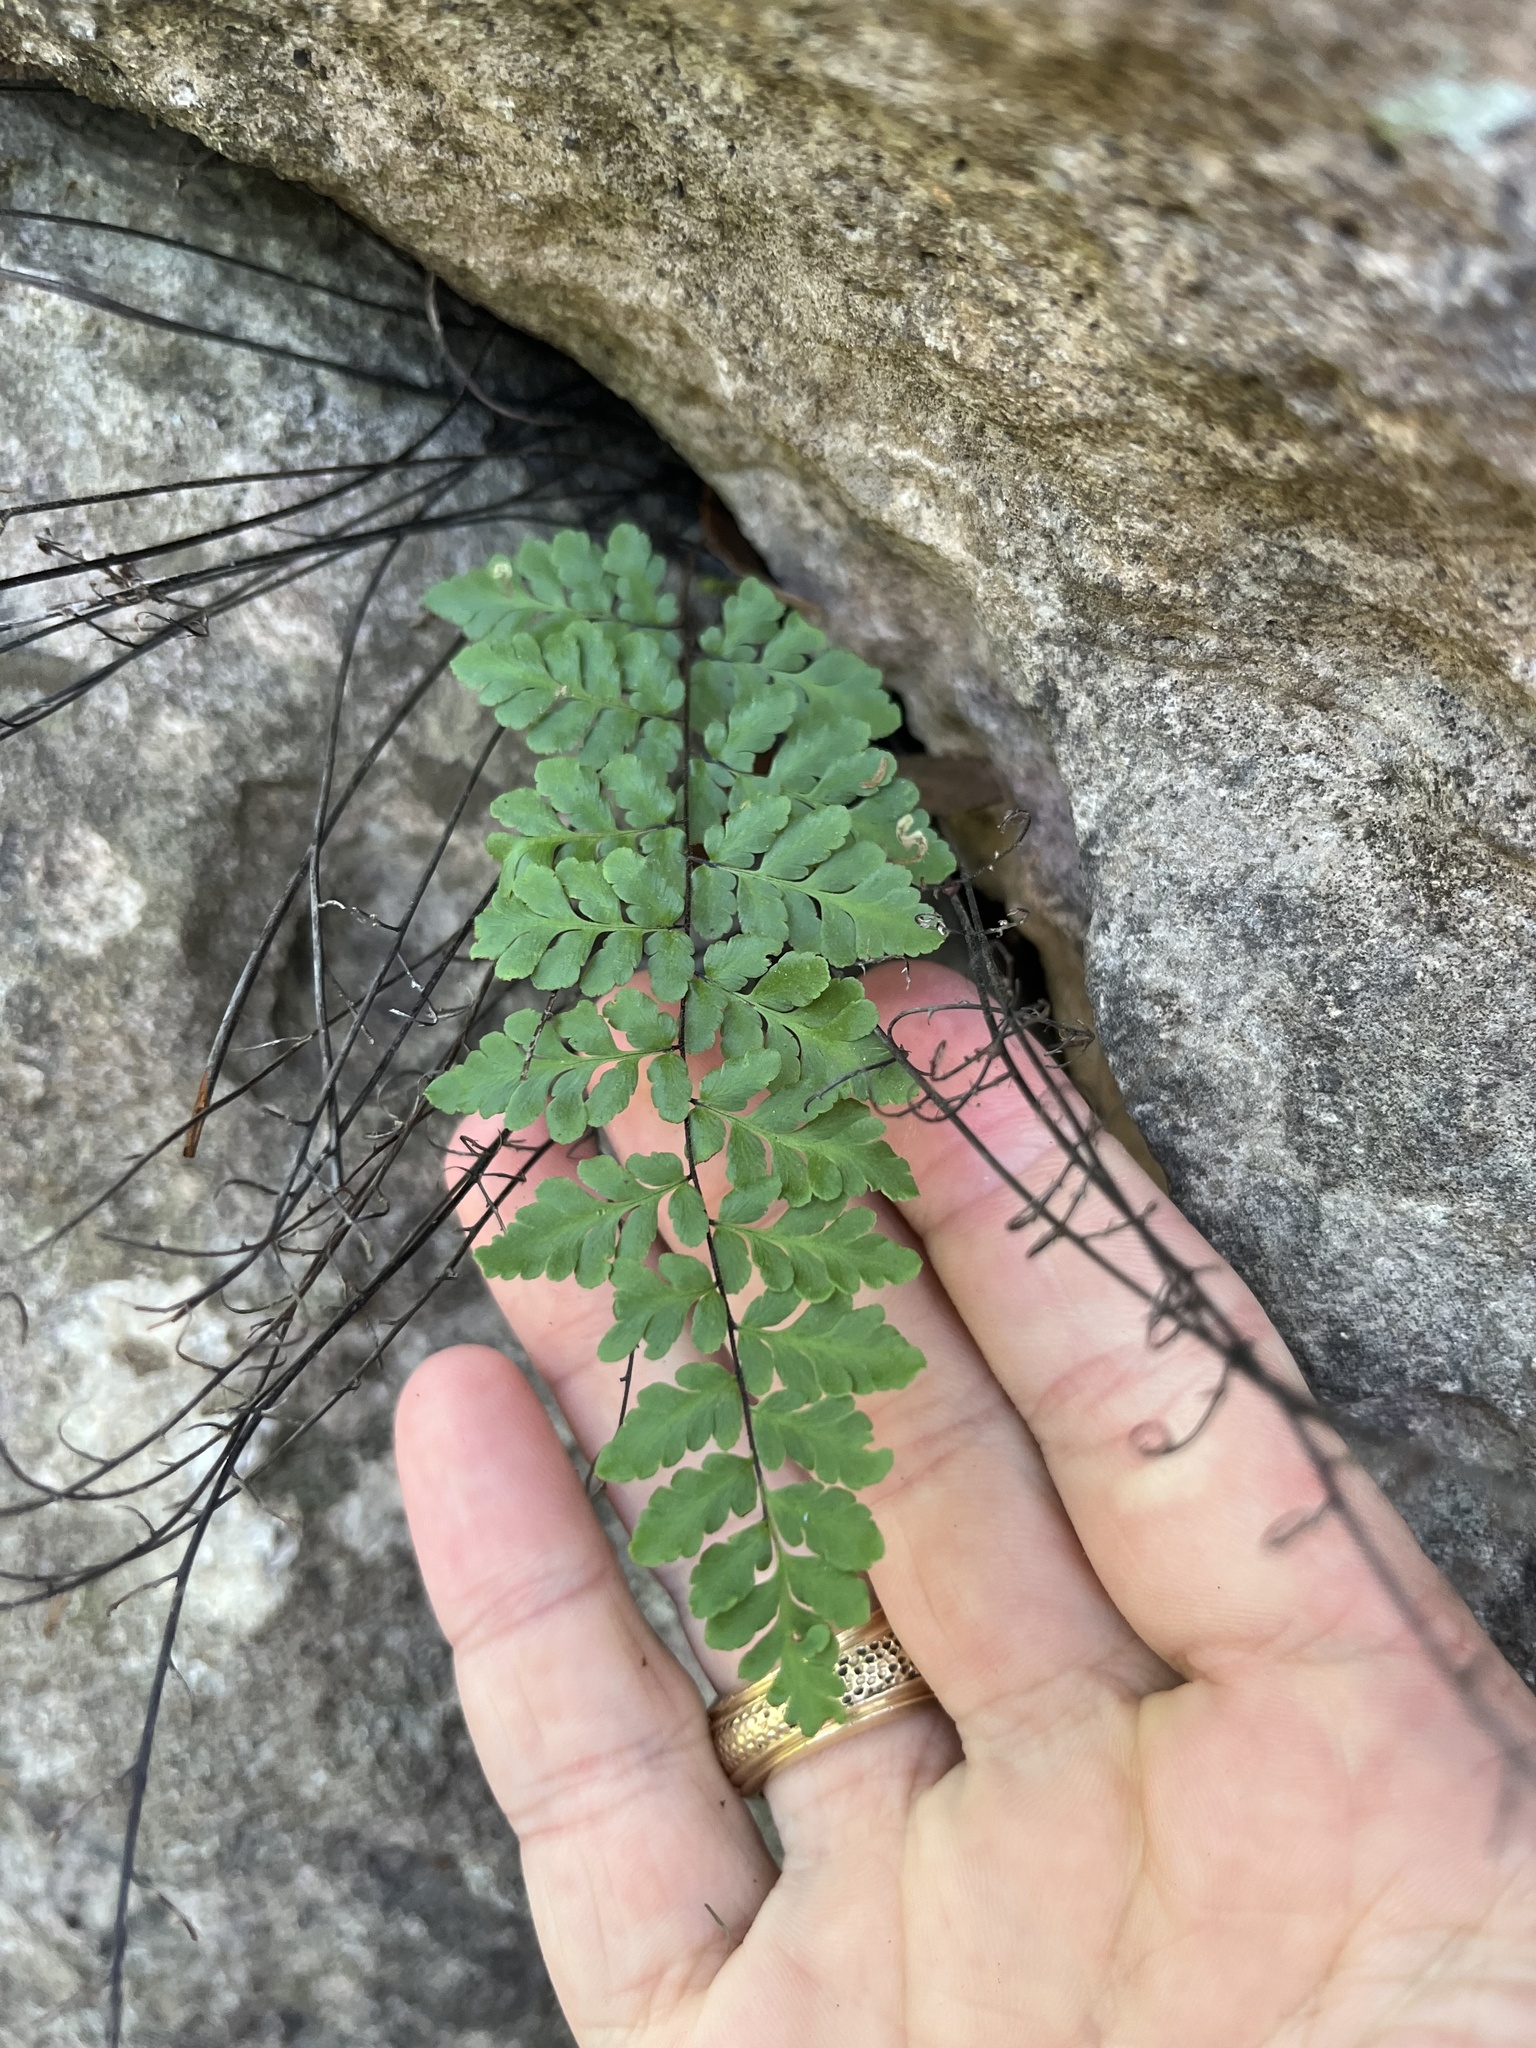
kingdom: Plantae
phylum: Tracheophyta
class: Polypodiopsida
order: Polypodiales
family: Pteridaceae
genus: Myriopteris
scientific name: Myriopteris alabamensis
